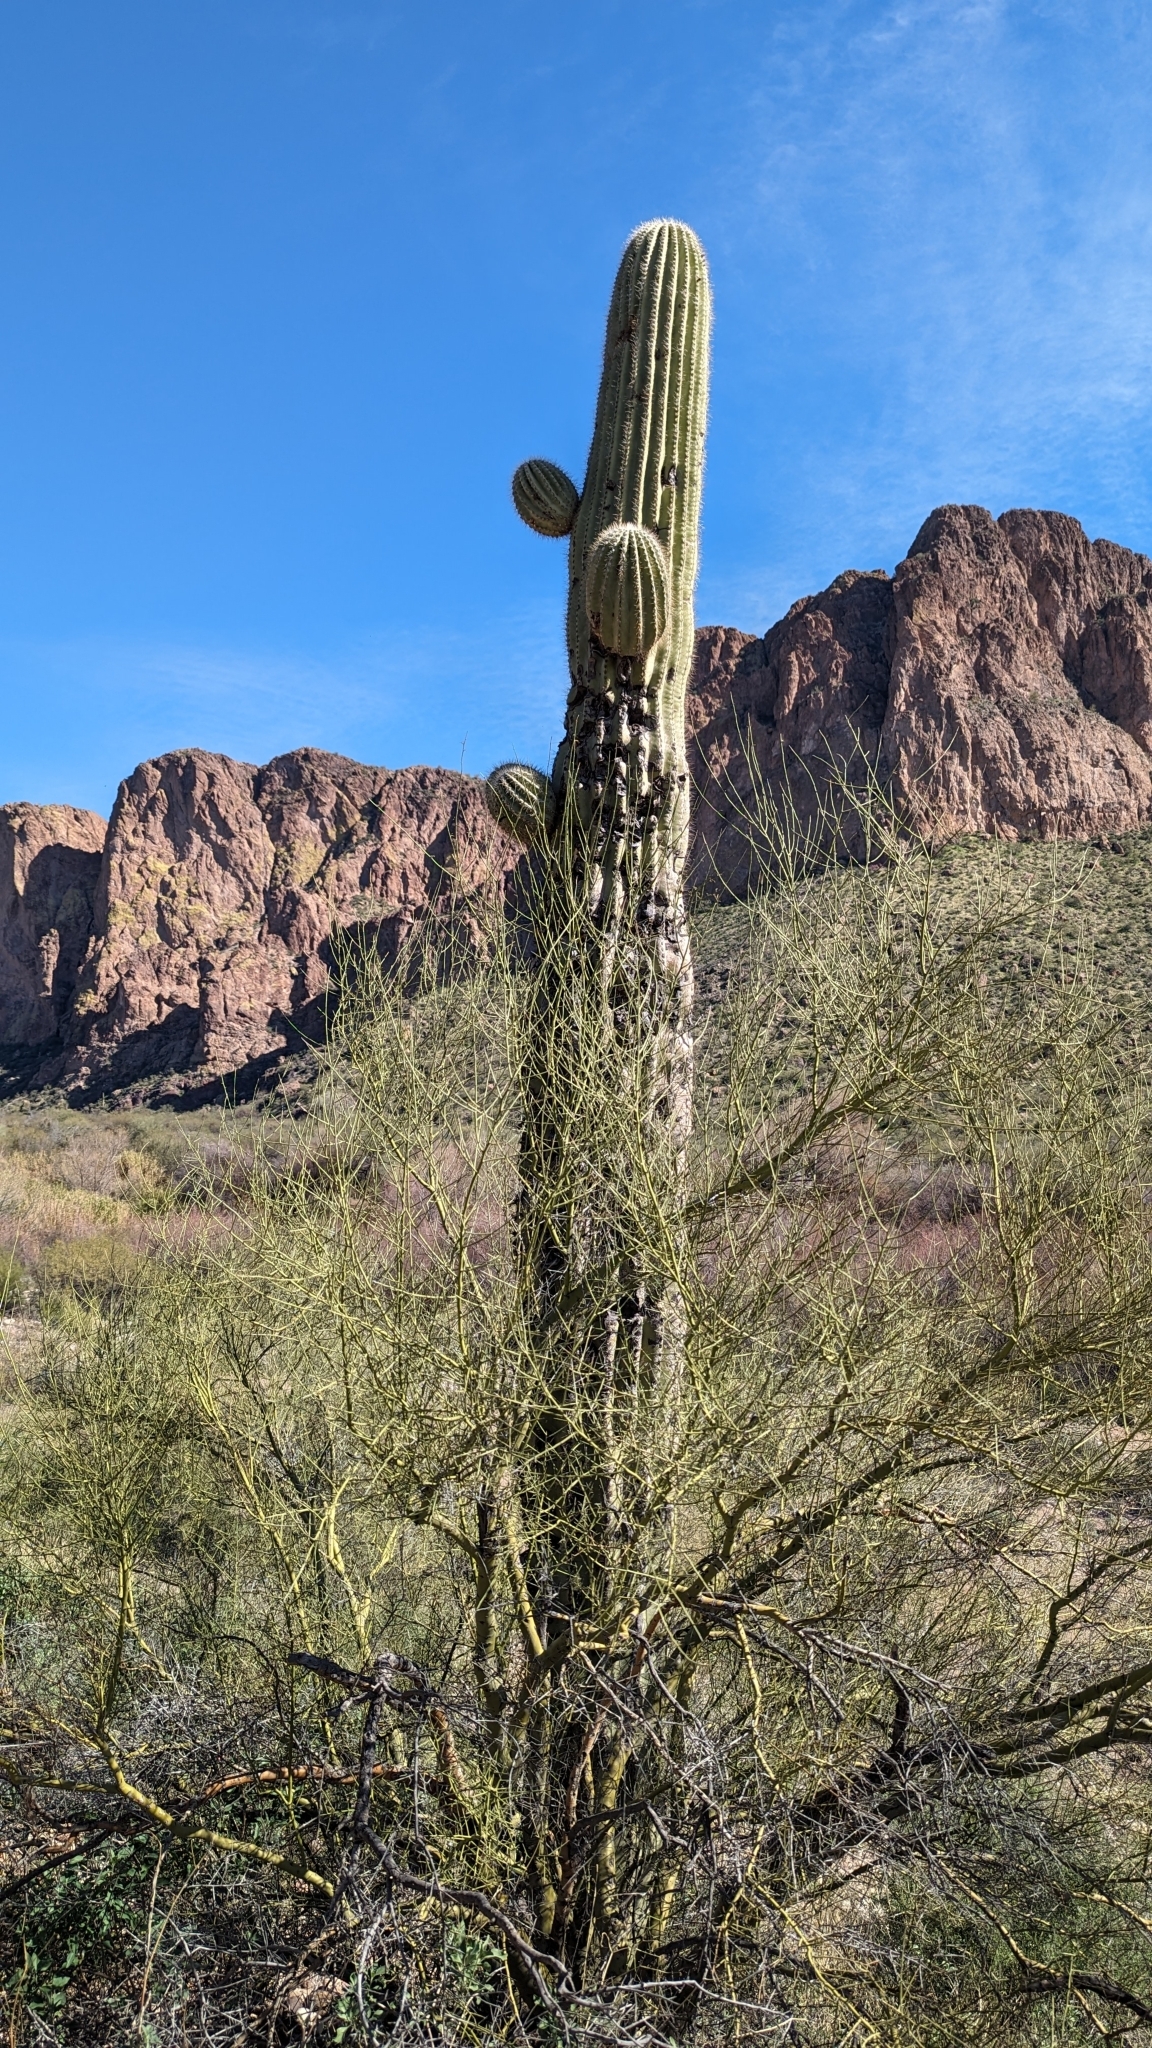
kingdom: Plantae
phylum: Tracheophyta
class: Magnoliopsida
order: Caryophyllales
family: Cactaceae
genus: Carnegiea
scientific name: Carnegiea gigantea
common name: Saguaro
